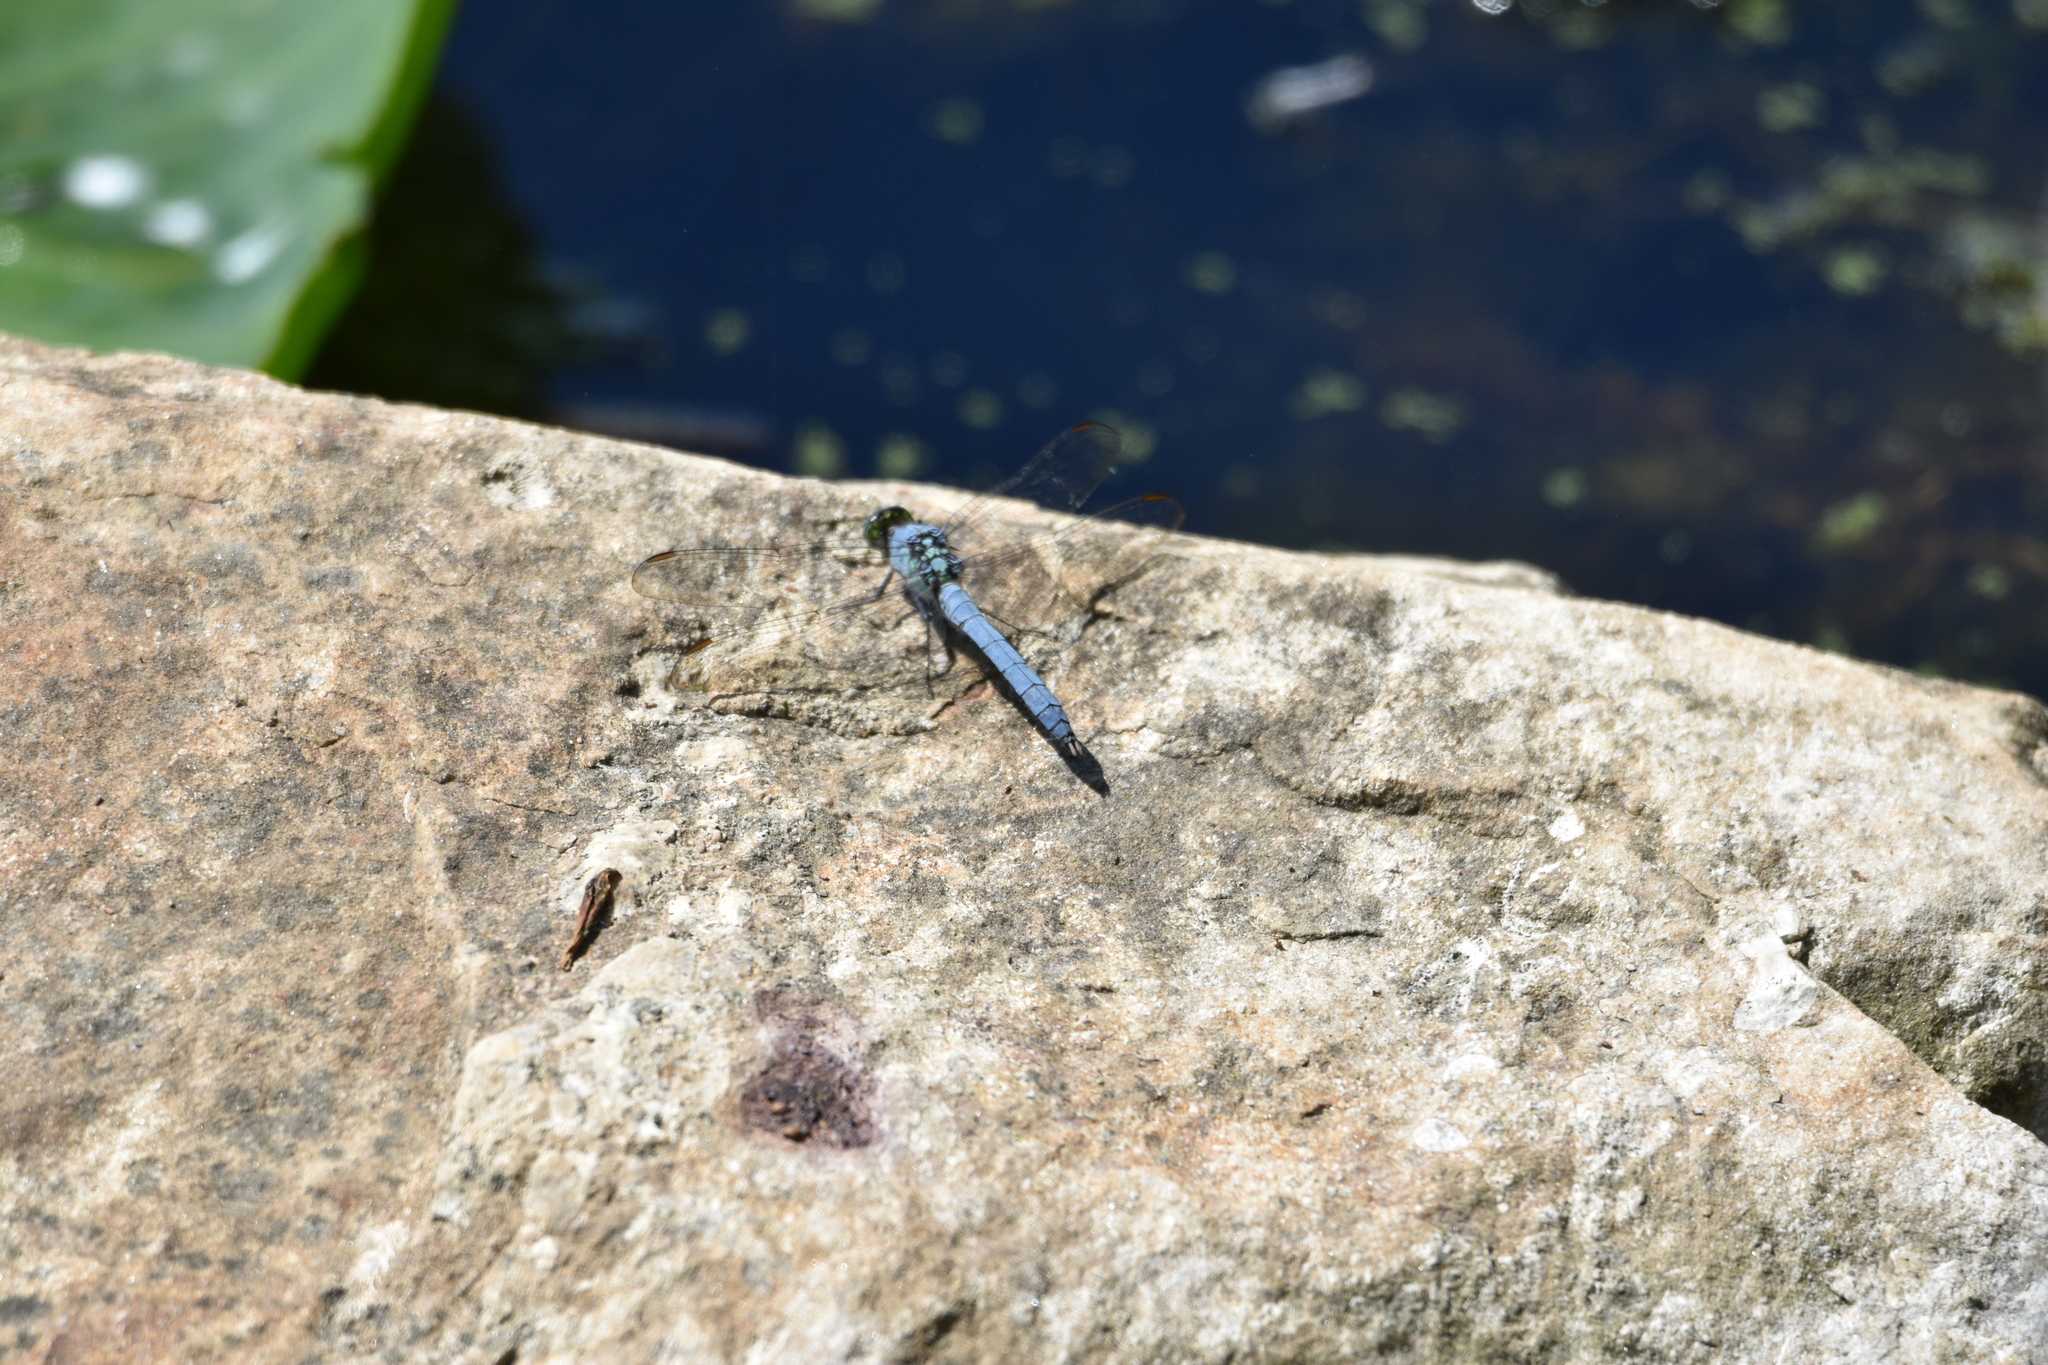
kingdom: Animalia
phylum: Arthropoda
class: Insecta
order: Odonata
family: Libellulidae
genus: Erythemis
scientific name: Erythemis simplicicollis
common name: Eastern pondhawk
